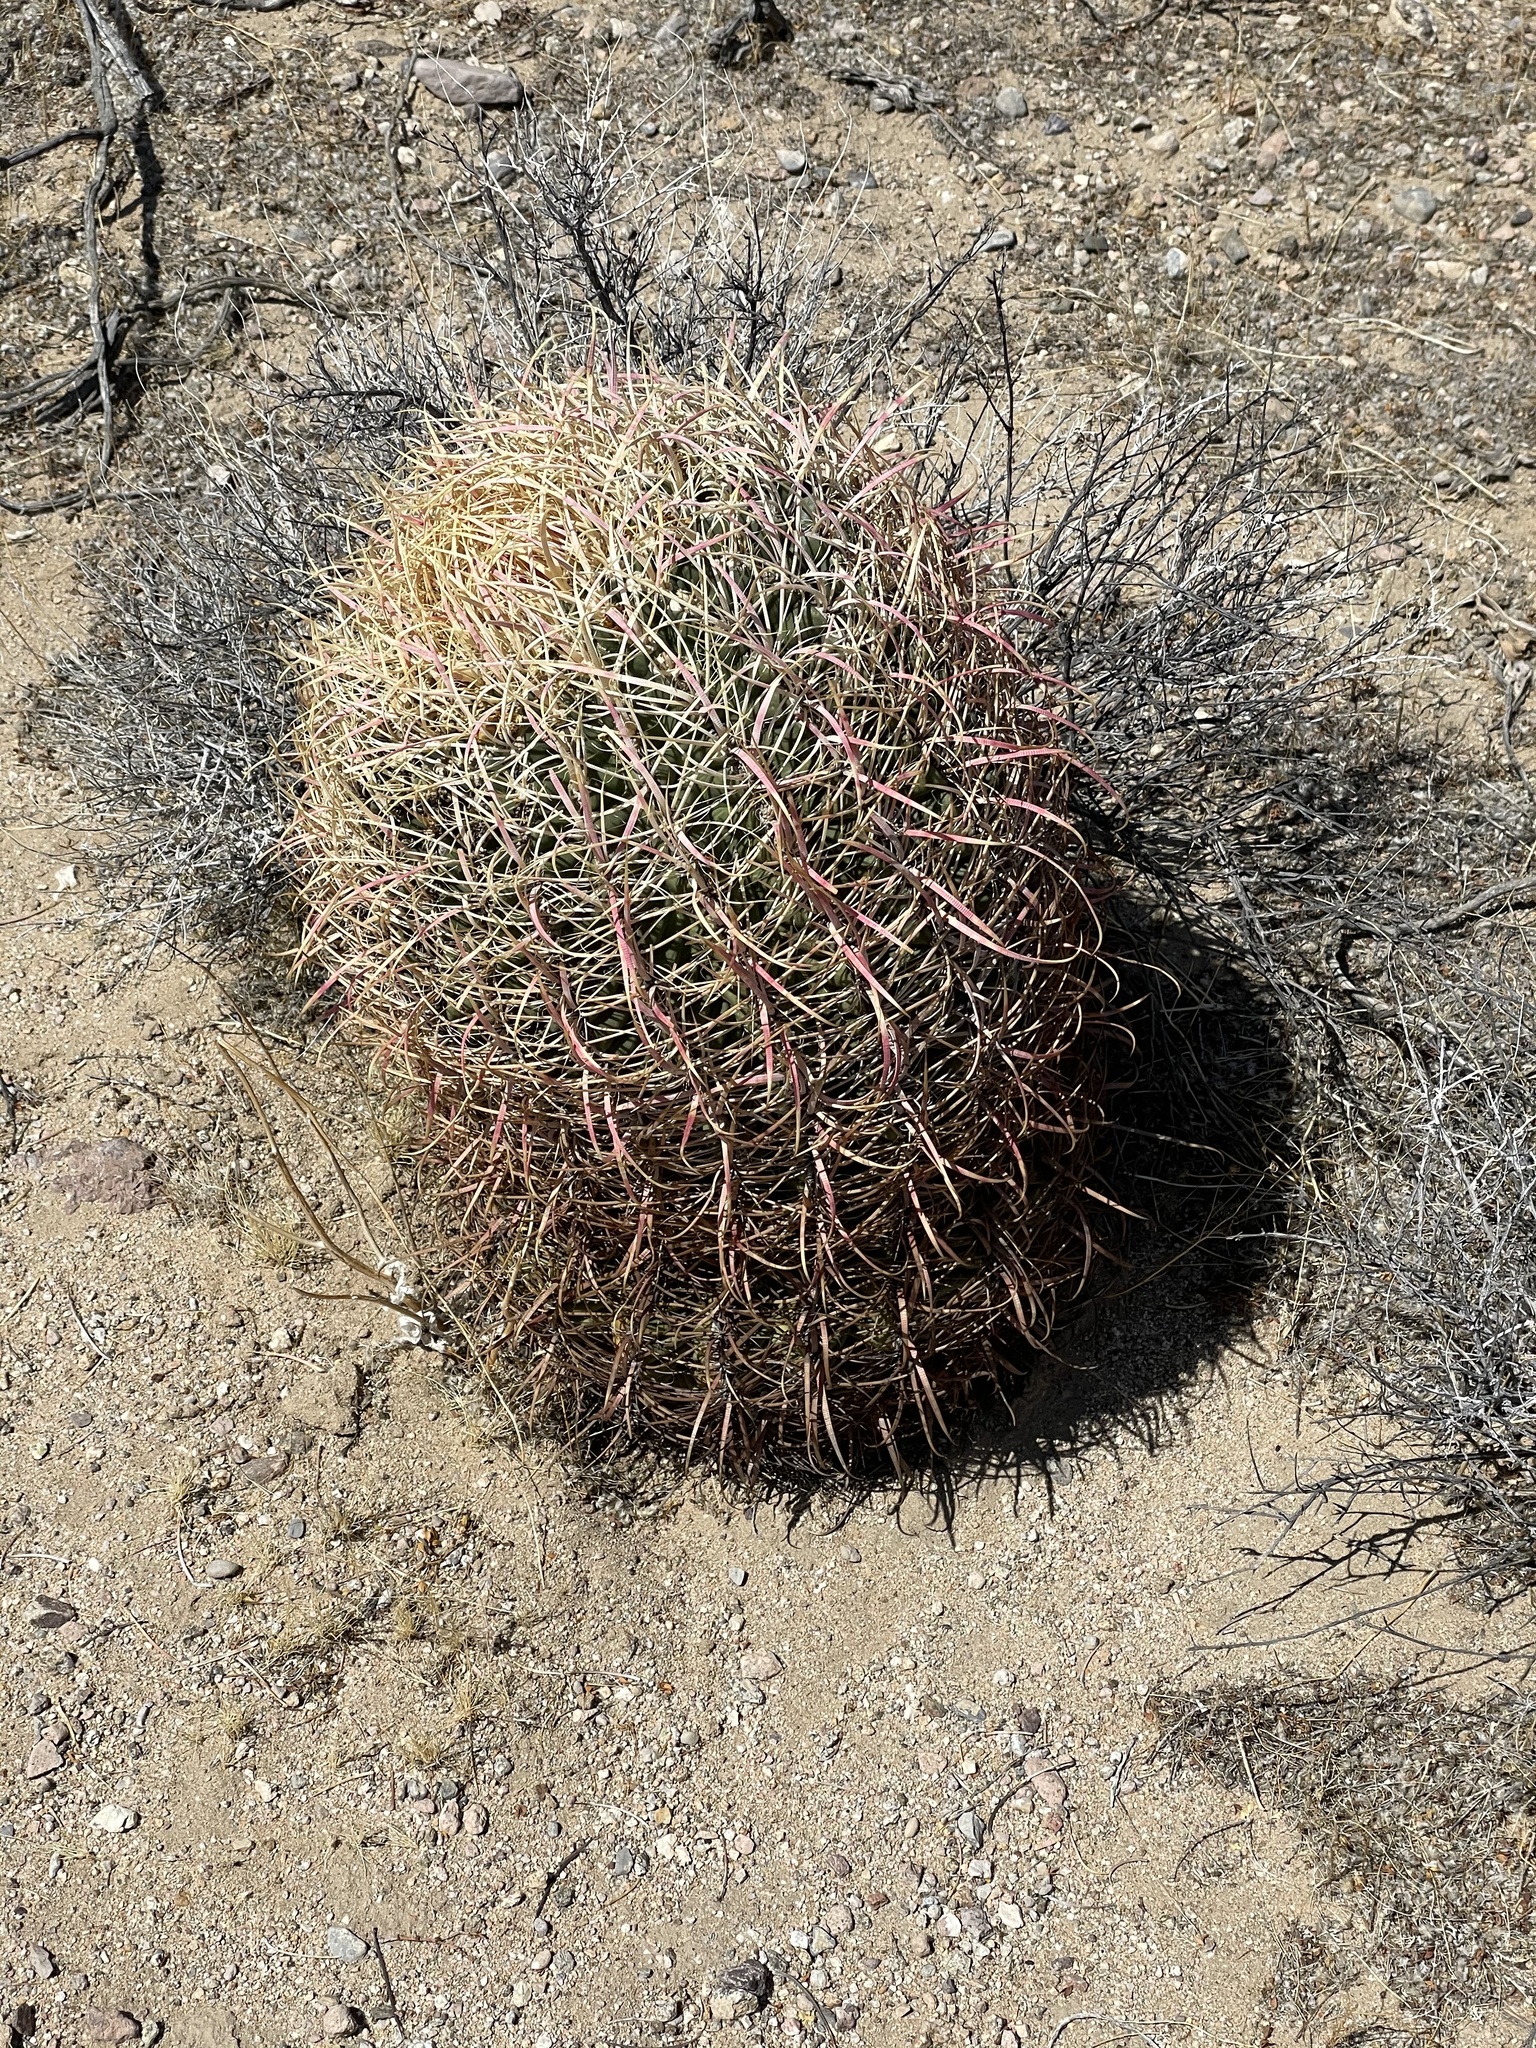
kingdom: Plantae
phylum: Tracheophyta
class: Magnoliopsida
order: Caryophyllales
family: Cactaceae
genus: Ferocactus
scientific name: Ferocactus cylindraceus
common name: California barrel cactus
